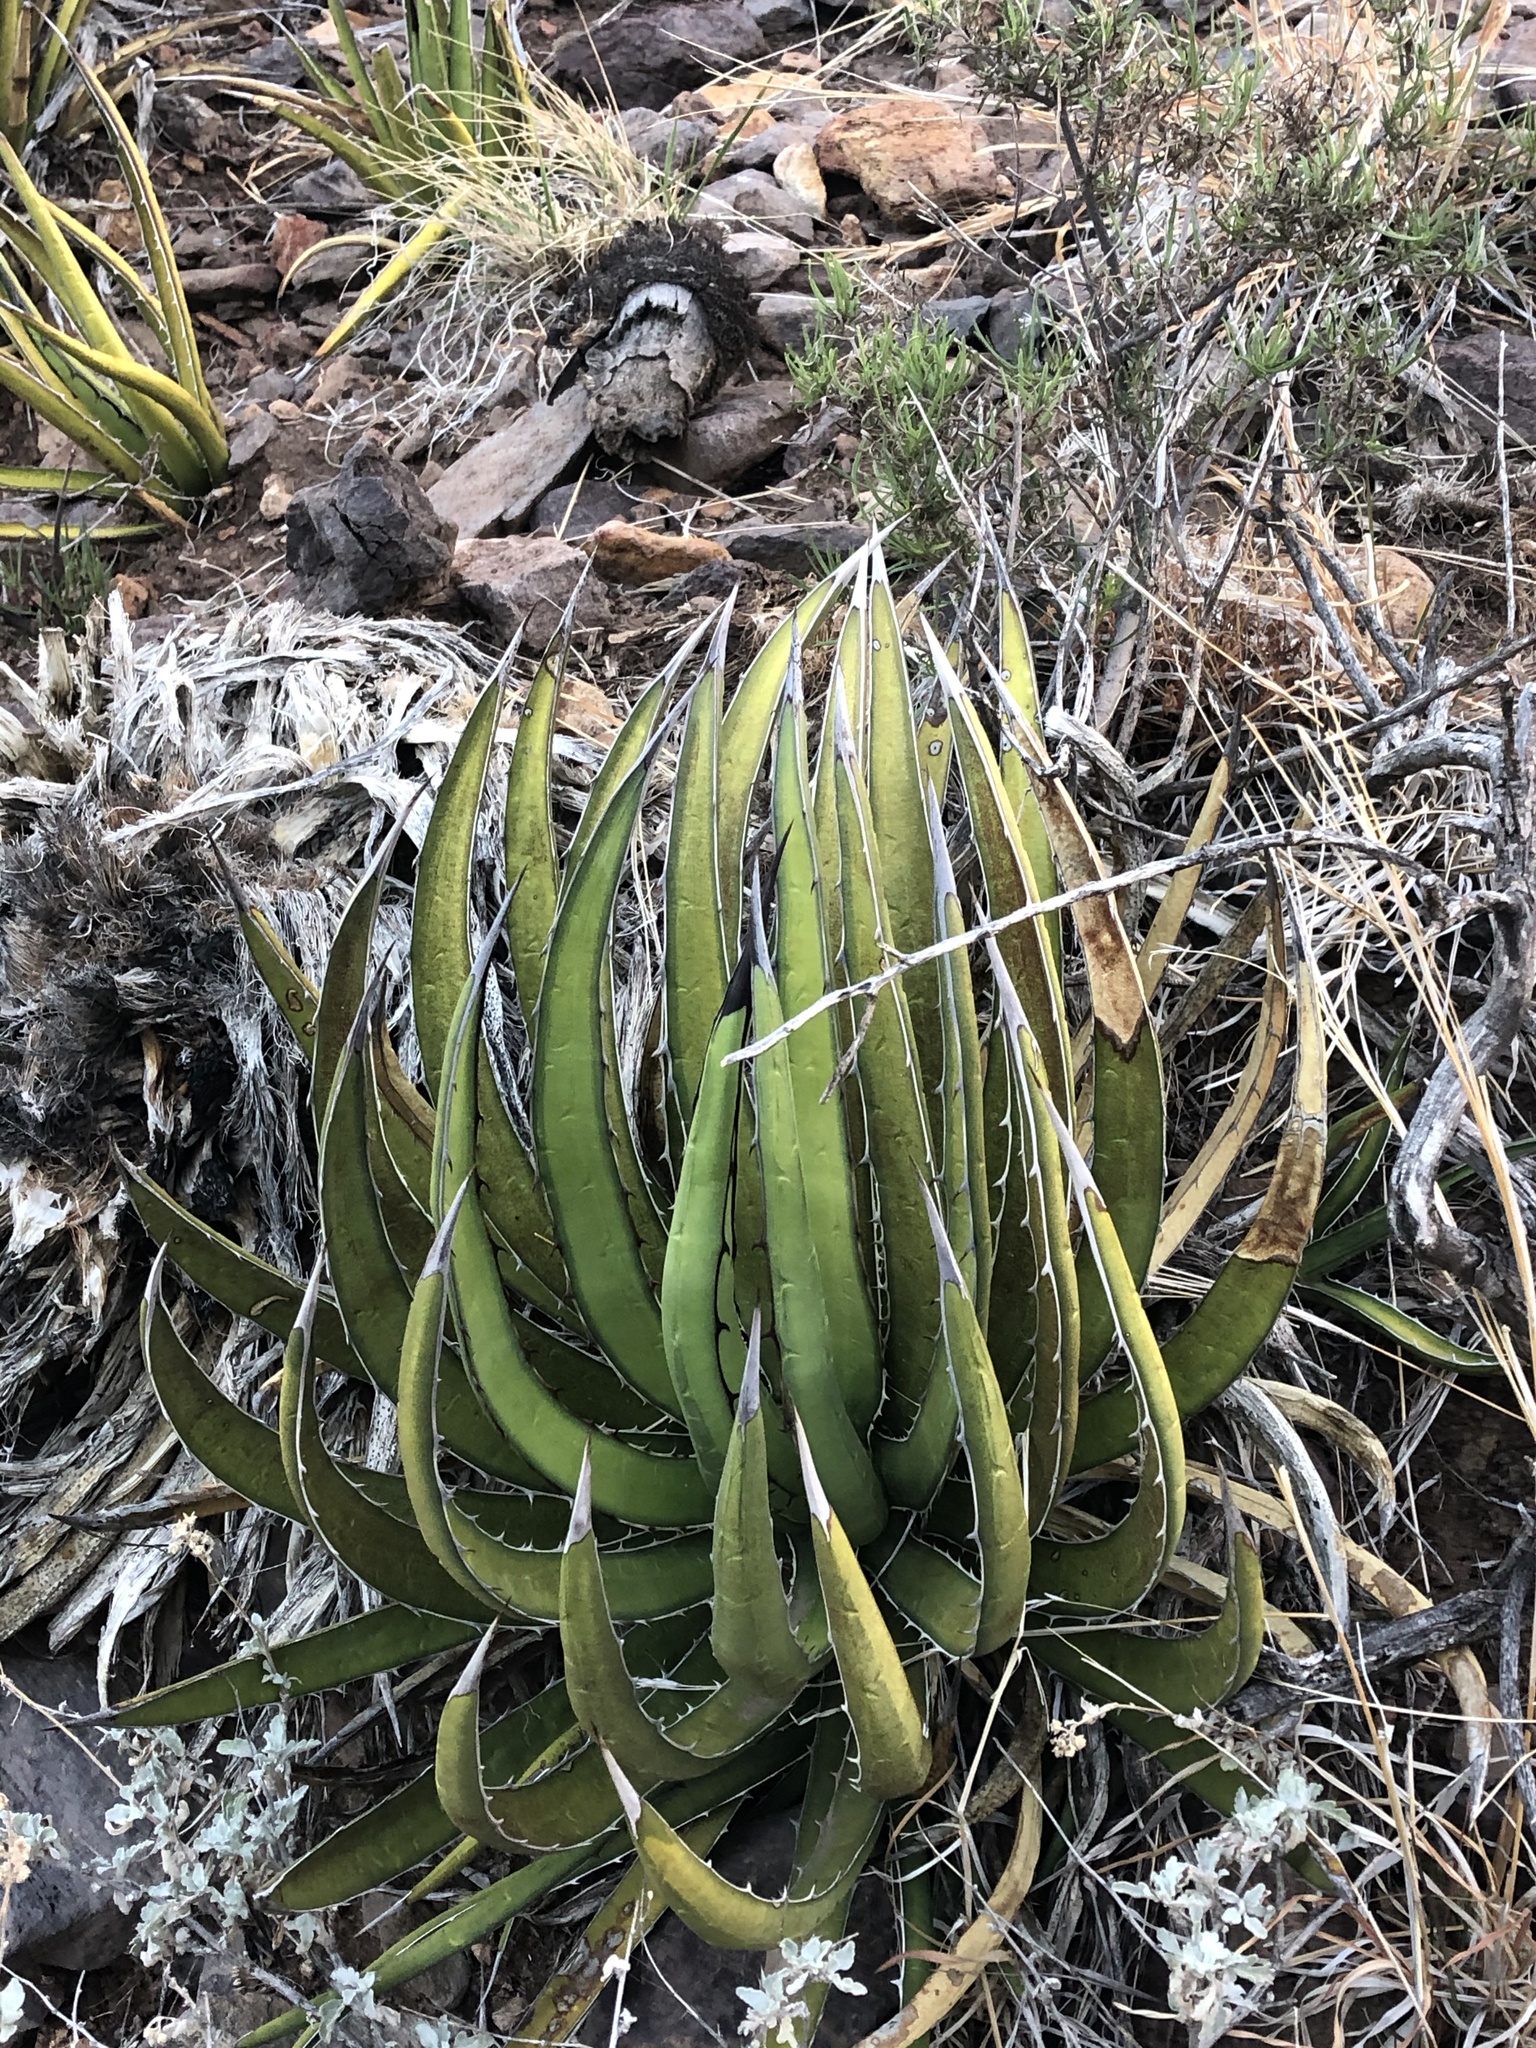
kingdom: Plantae
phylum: Tracheophyta
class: Liliopsida
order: Asparagales
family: Asparagaceae
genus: Agave
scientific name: Agave lechuguilla
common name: Lecheguilla agave
